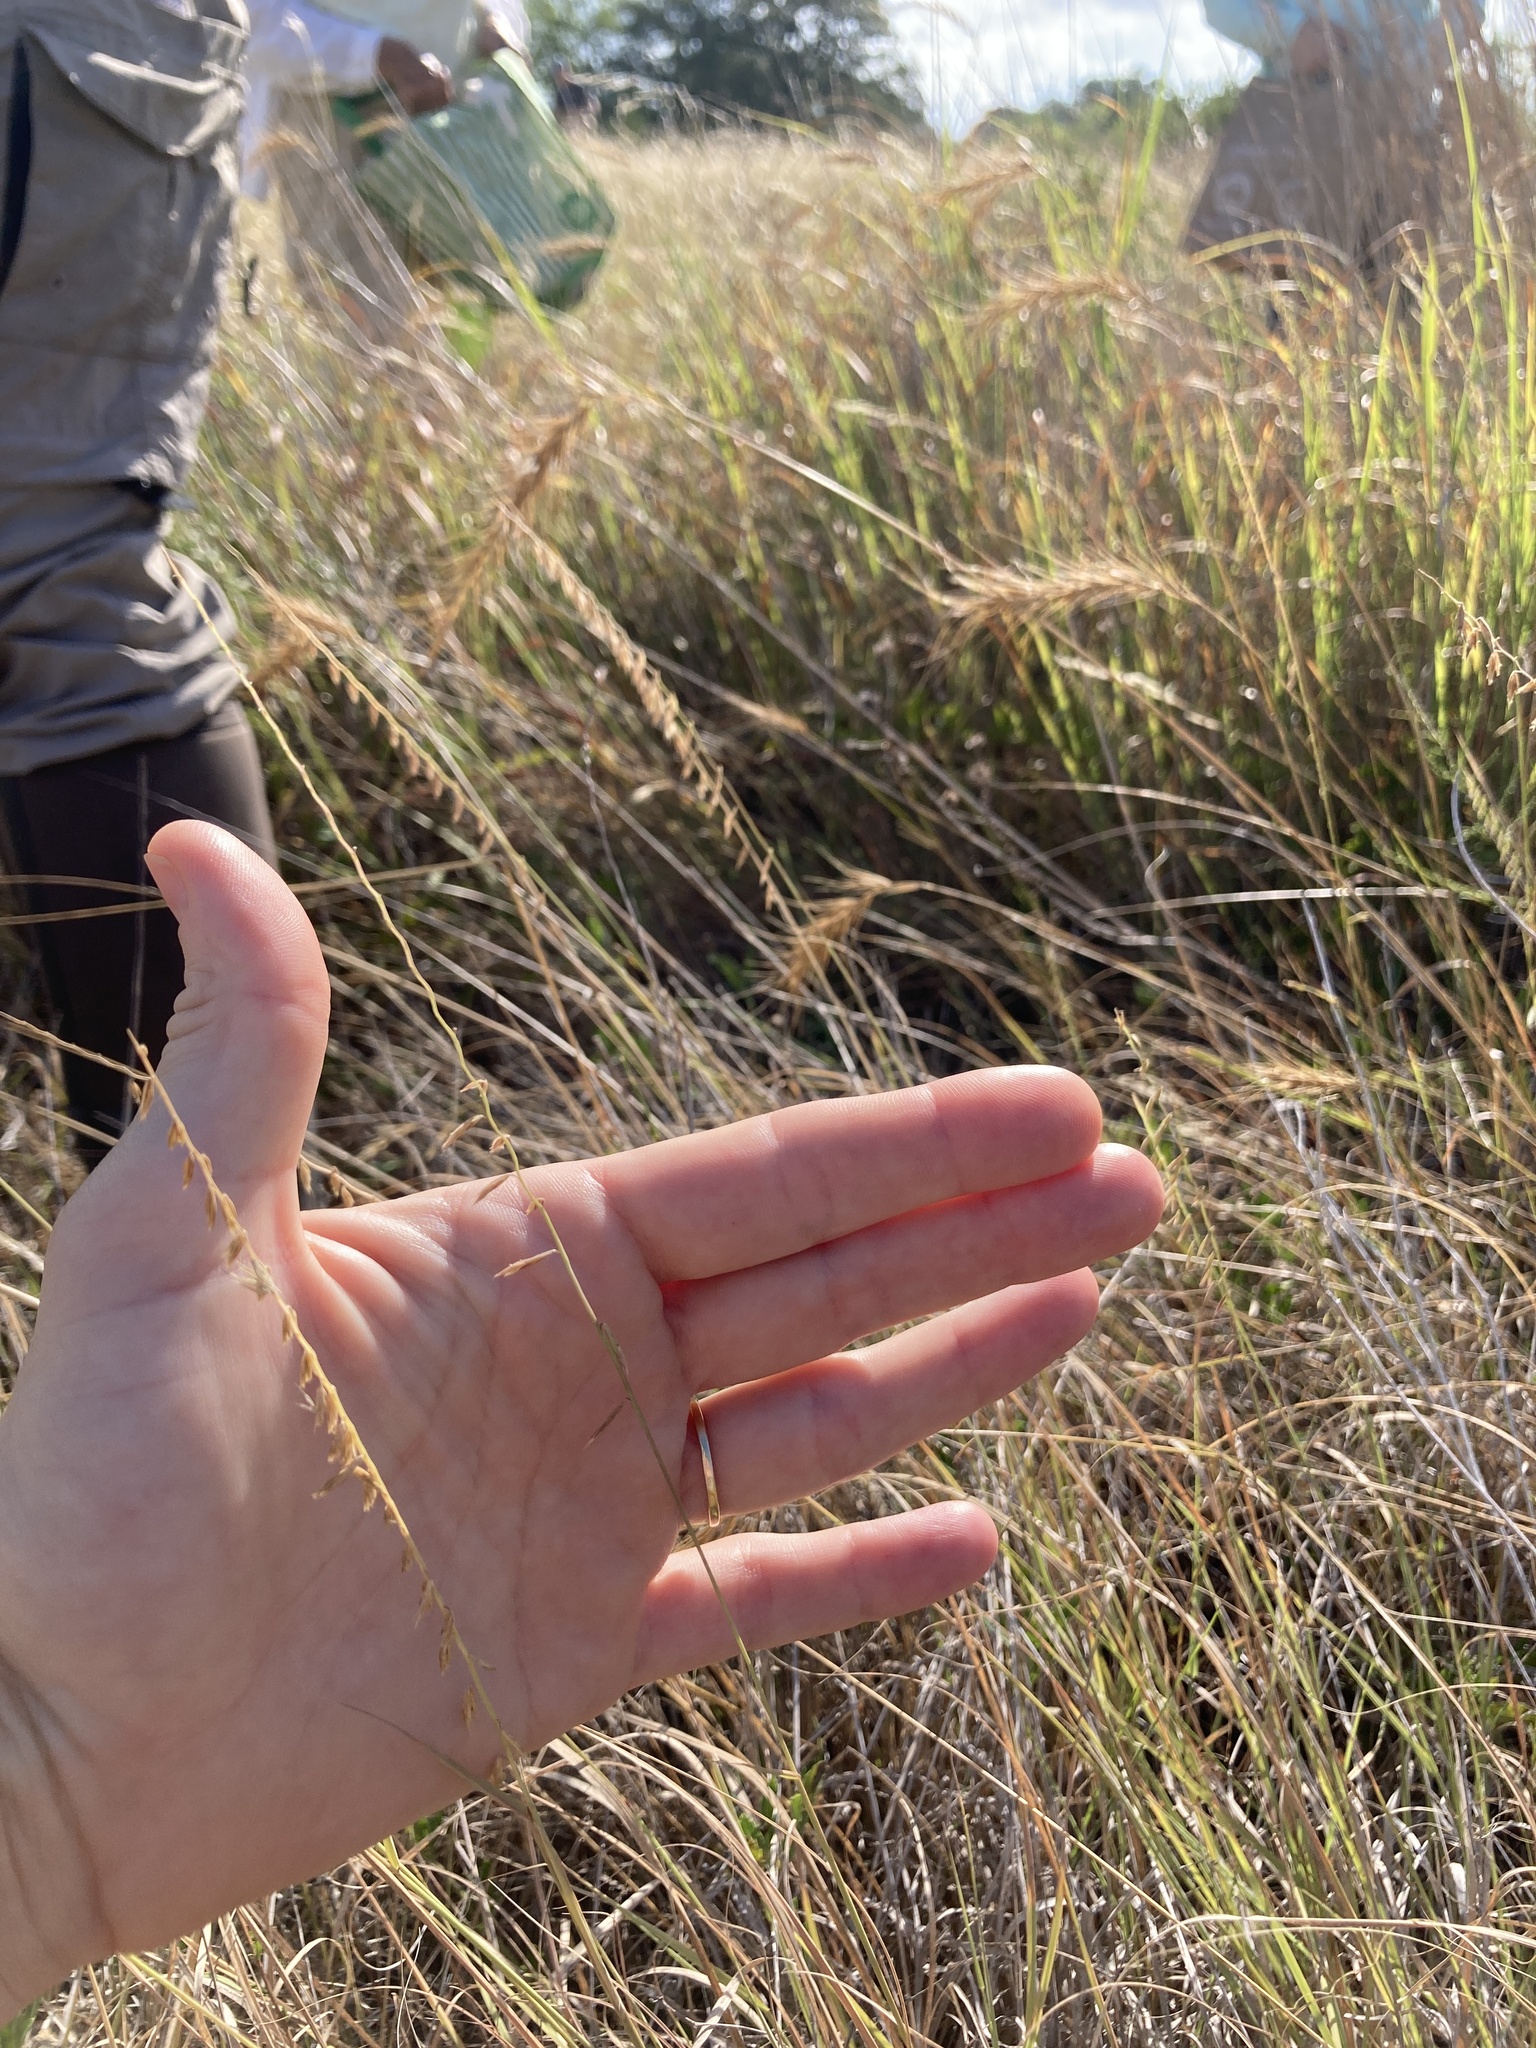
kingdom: Plantae
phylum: Tracheophyta
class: Liliopsida
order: Poales
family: Poaceae
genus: Bouteloua
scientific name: Bouteloua curtipendula
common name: Side-oats grama
